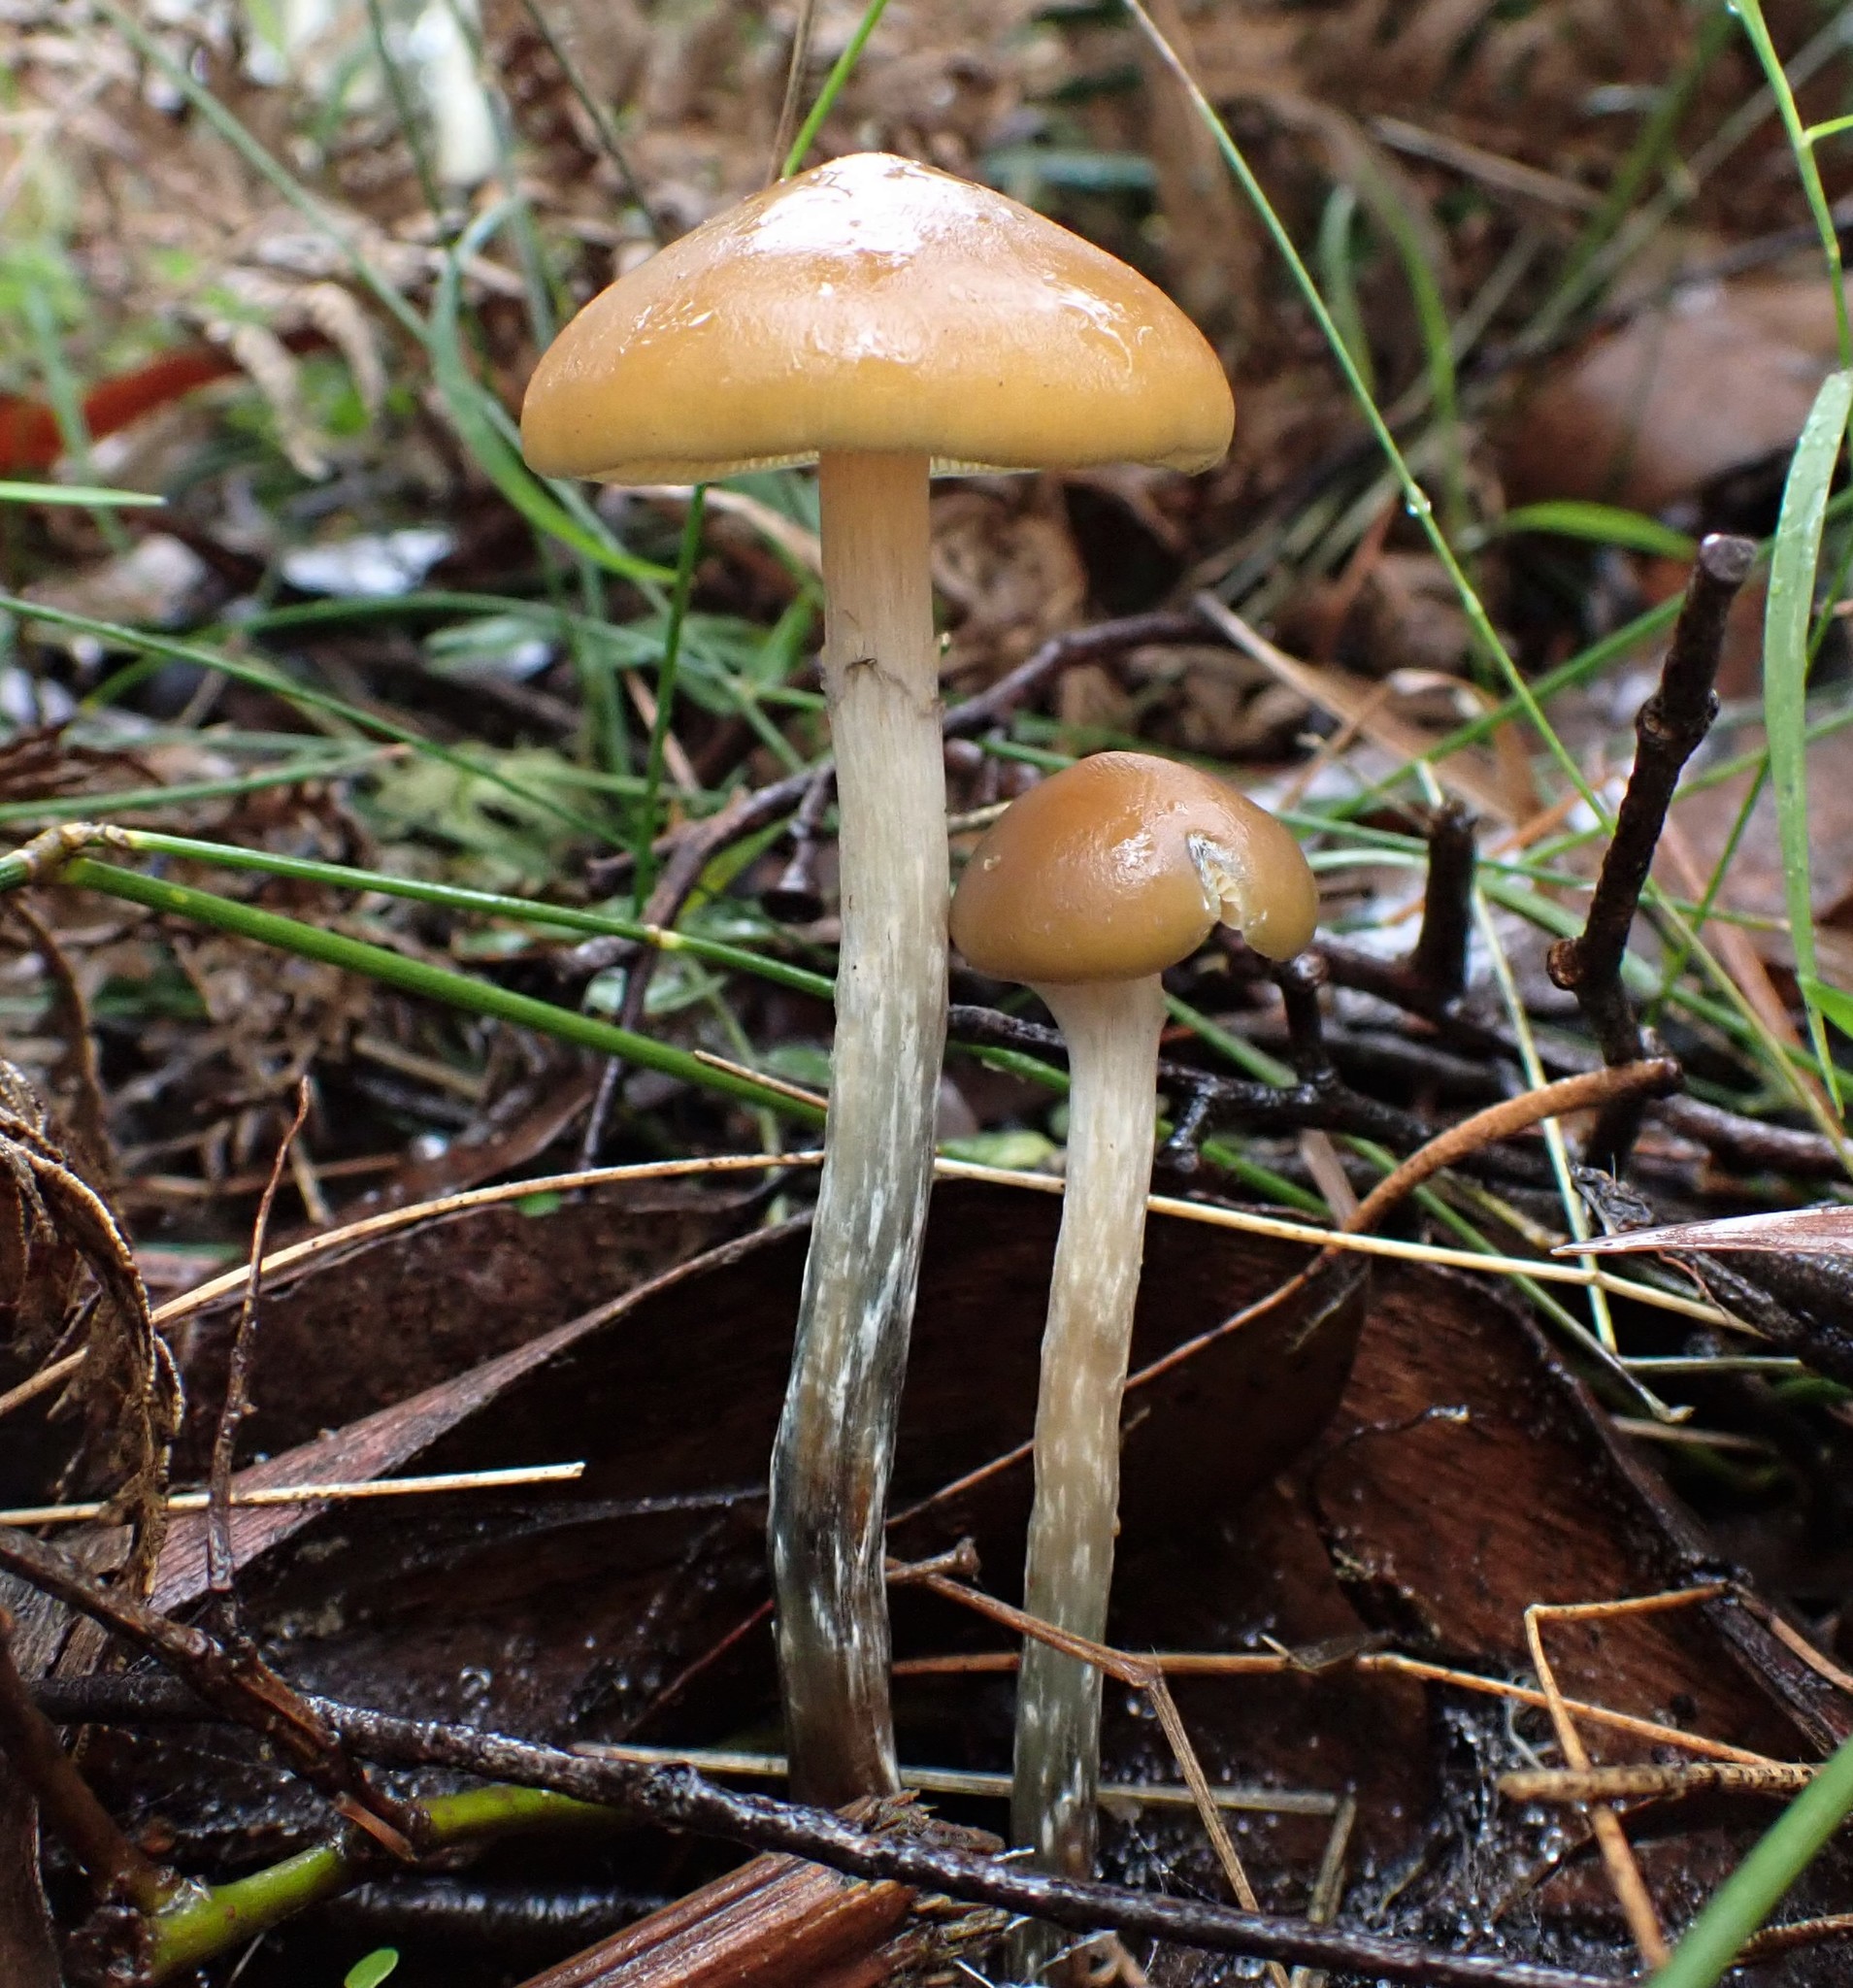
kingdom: Fungi
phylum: Basidiomycota
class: Agaricomycetes
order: Agaricales
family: Hymenogastraceae
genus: Psilocybe
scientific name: Psilocybe subaeruginosa
